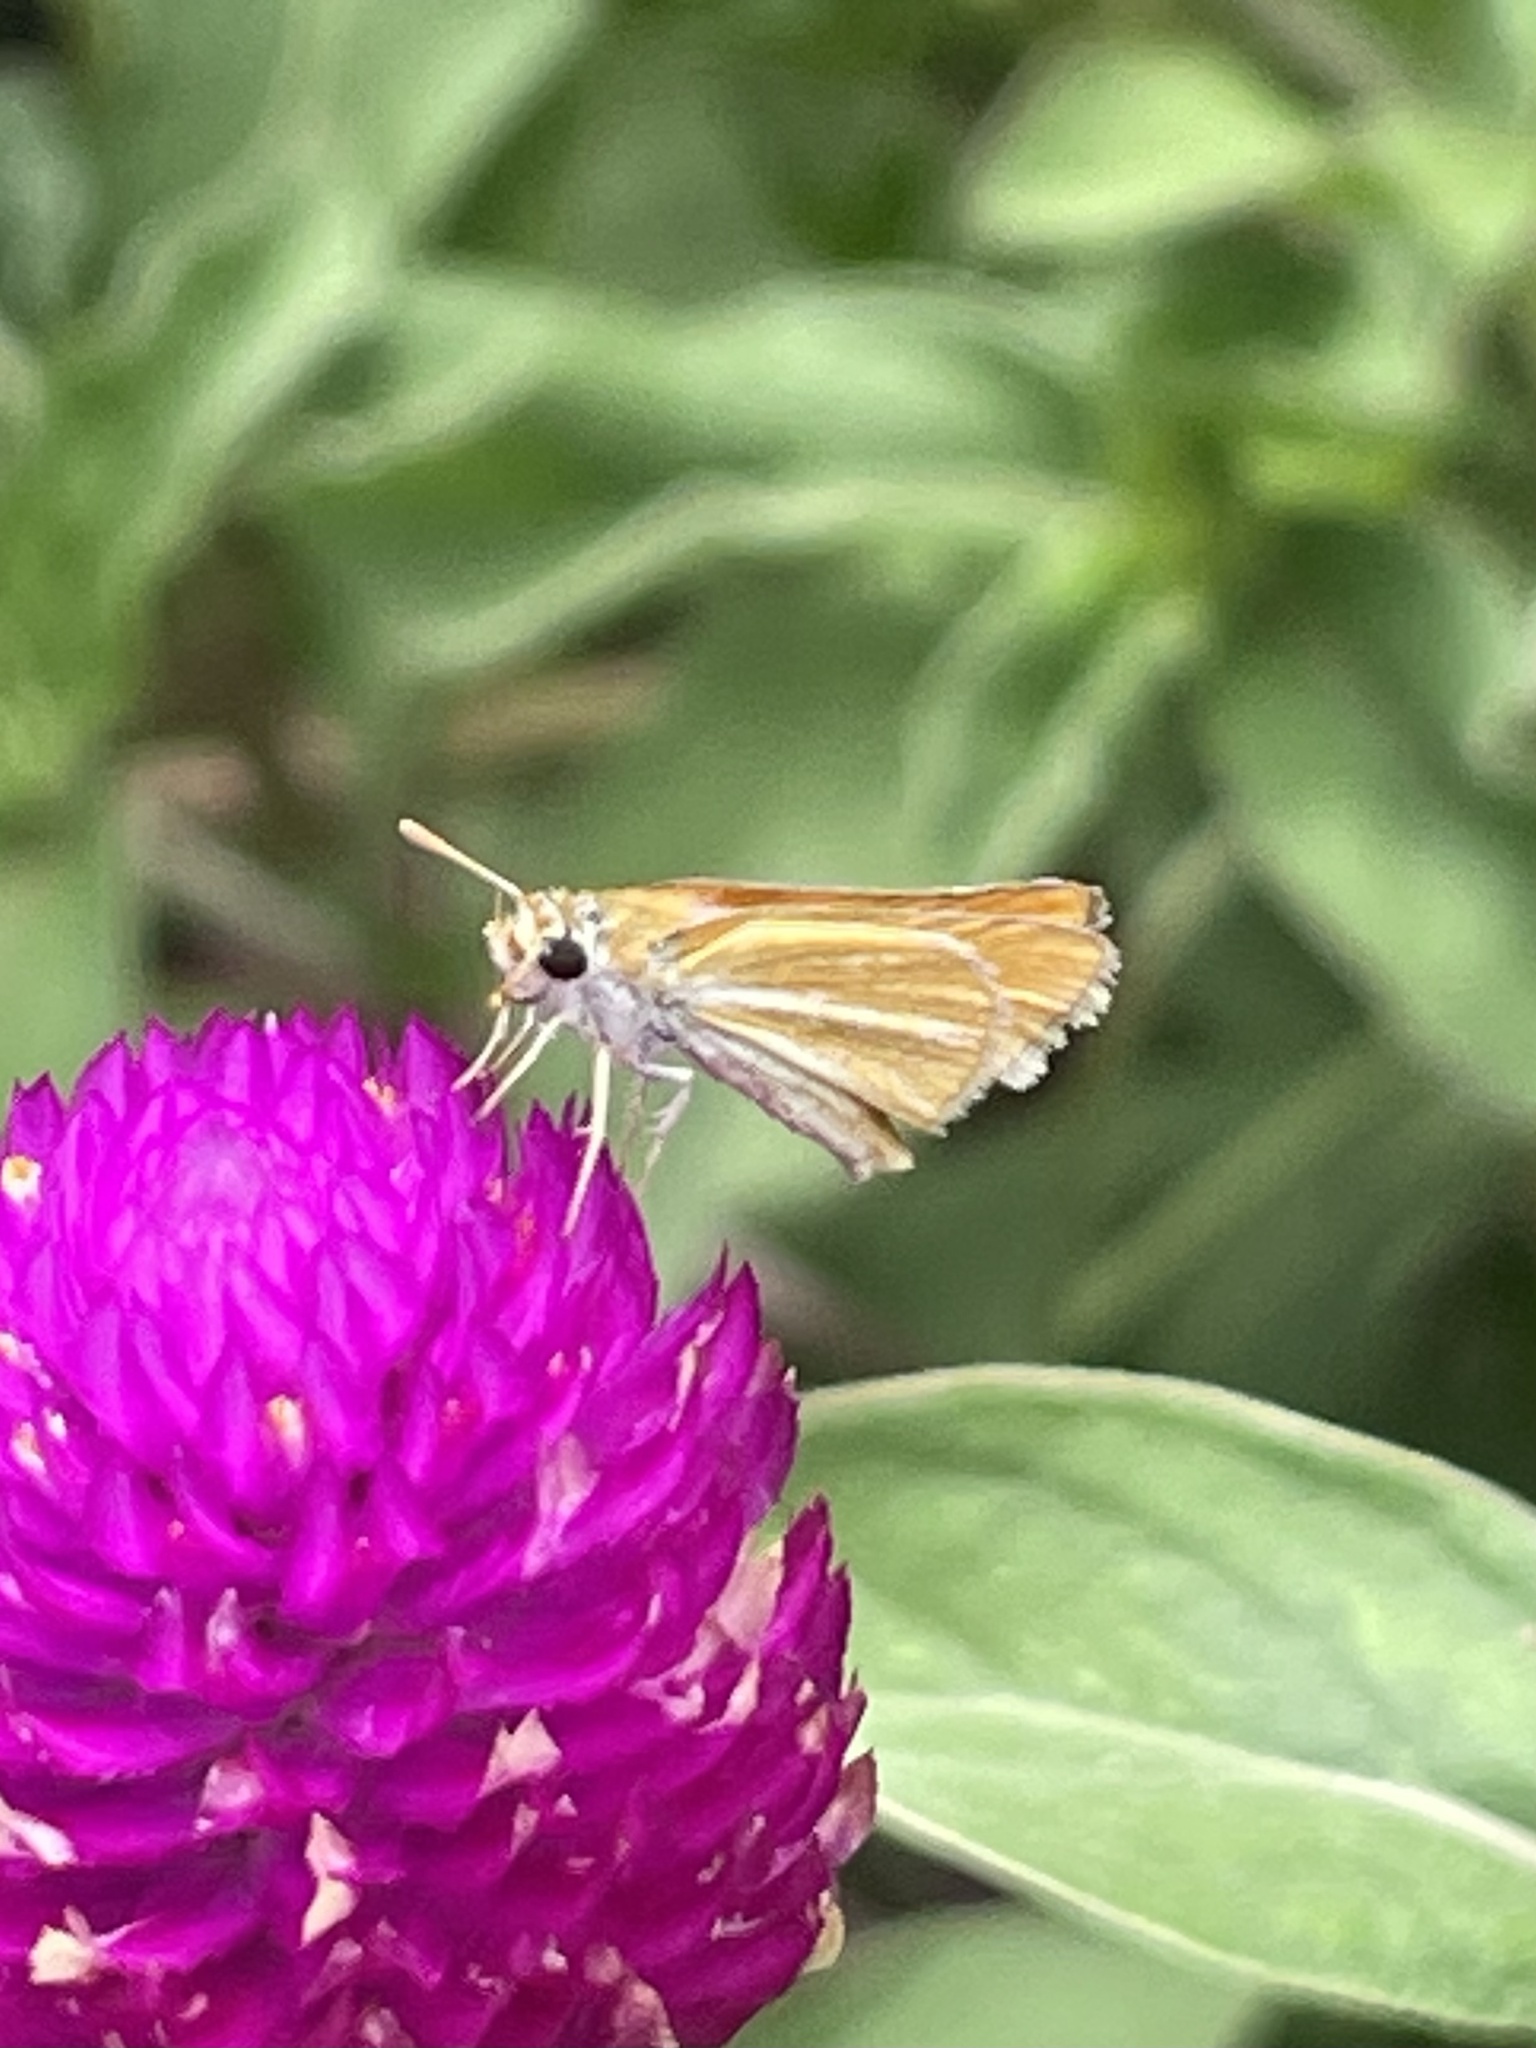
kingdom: Animalia
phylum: Arthropoda
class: Insecta
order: Lepidoptera
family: Hesperiidae
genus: Copaeodes
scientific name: Copaeodes minima
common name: Southern skipperling
